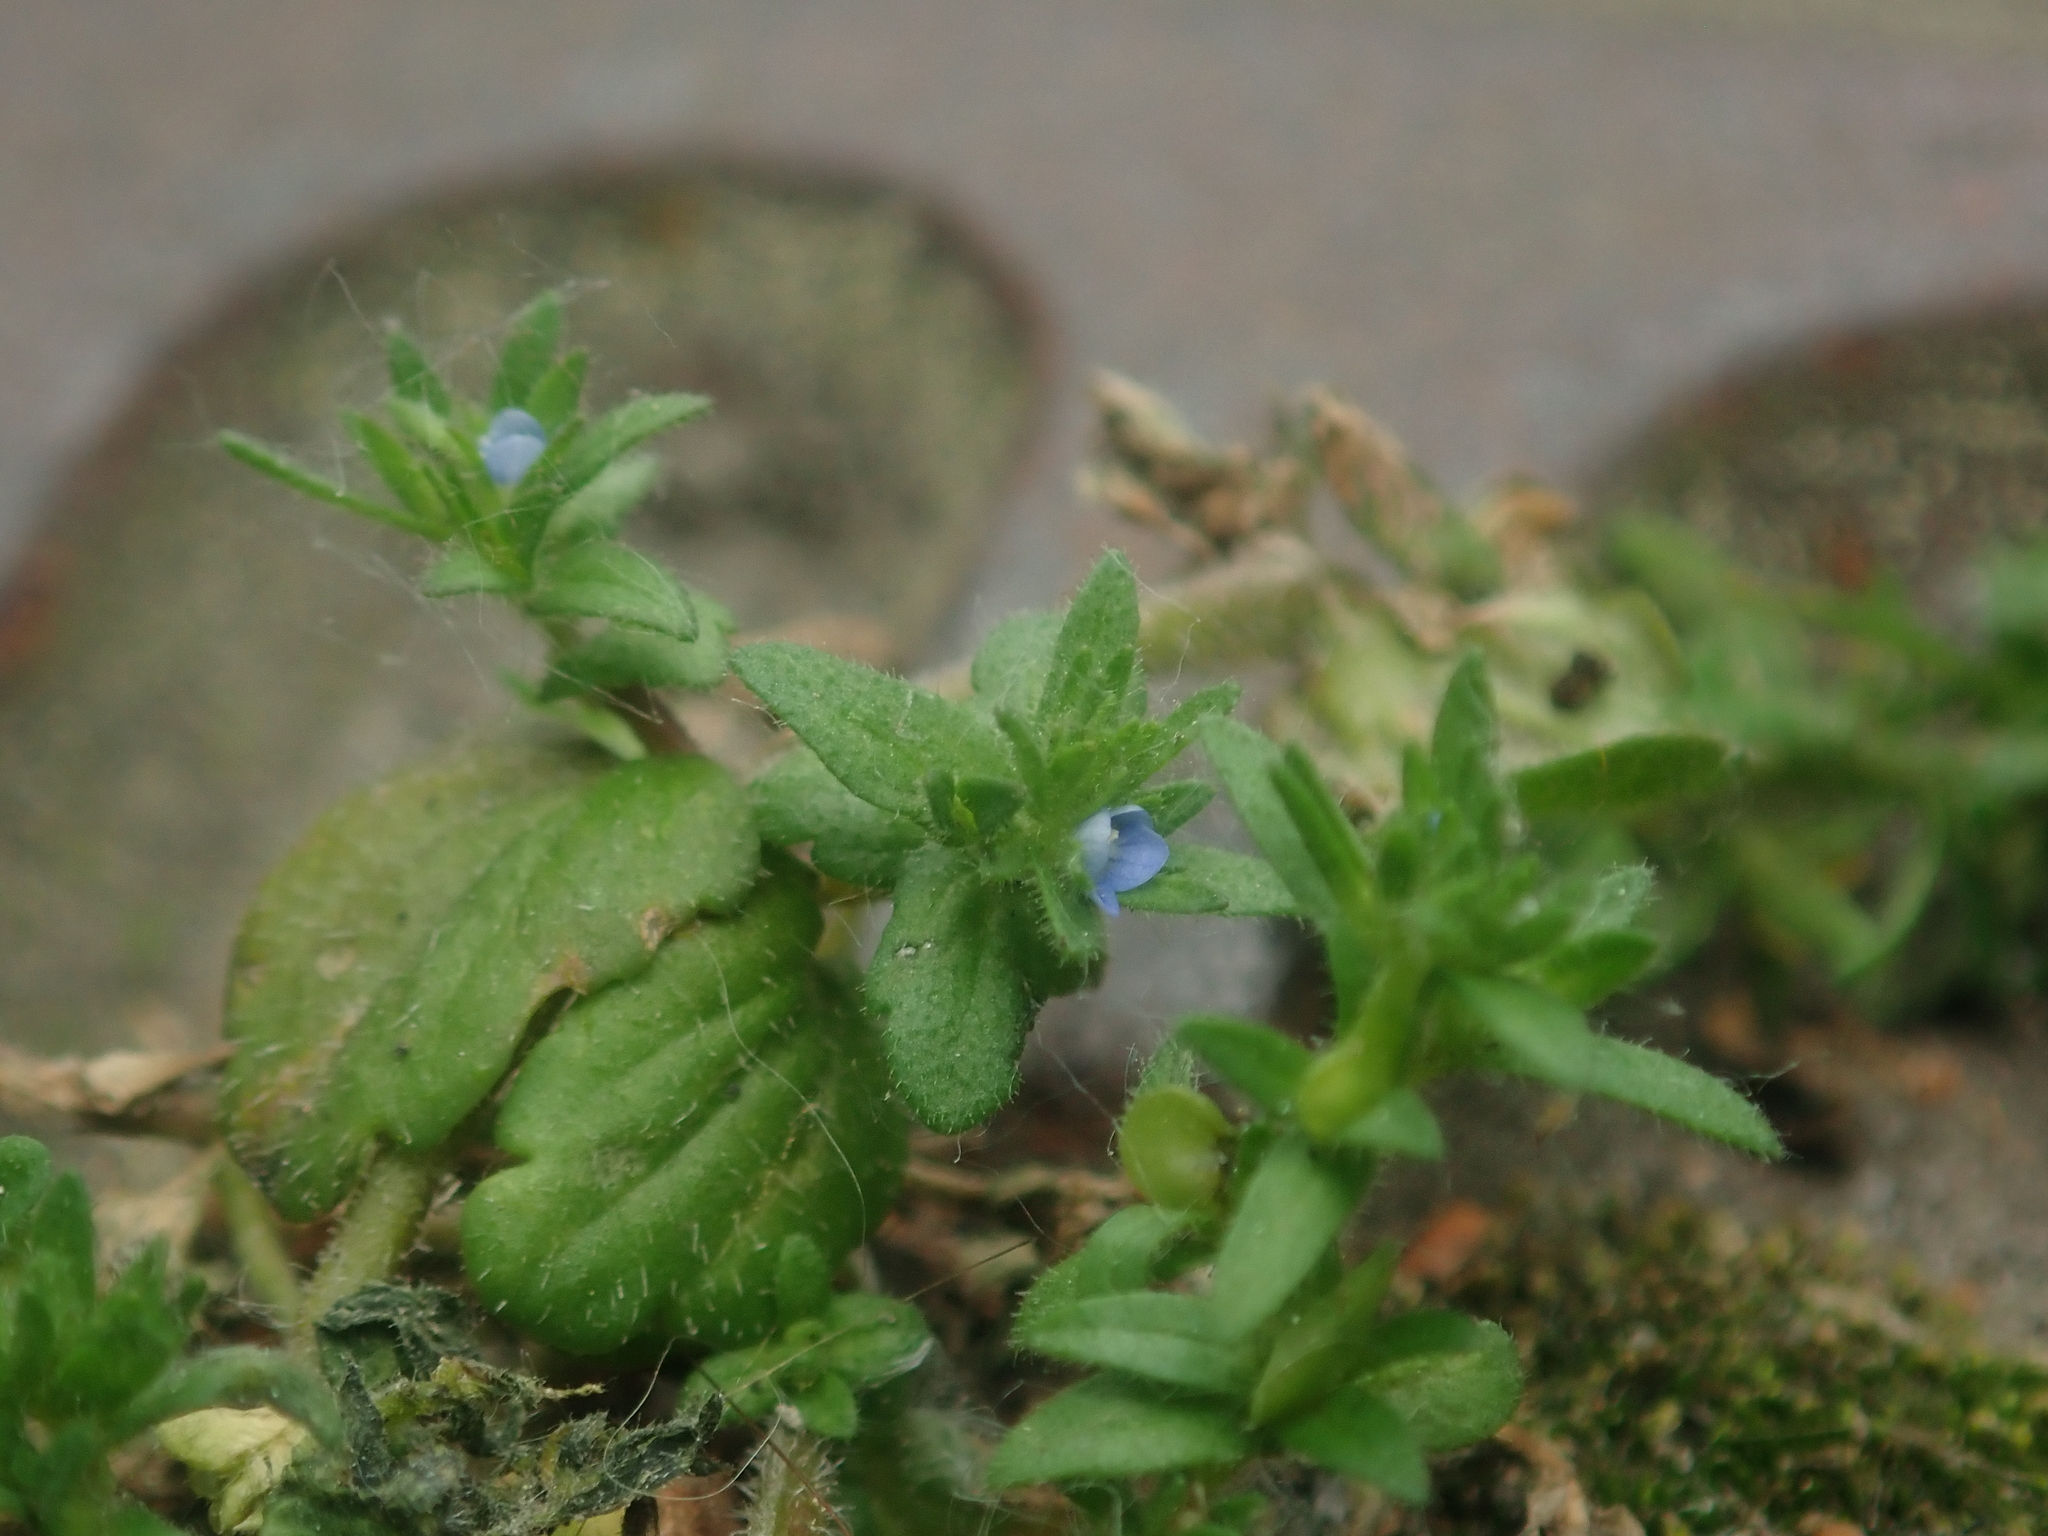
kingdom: Plantae
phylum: Tracheophyta
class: Magnoliopsida
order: Lamiales
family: Plantaginaceae
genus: Veronica
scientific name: Veronica arvensis
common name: Corn speedwell
